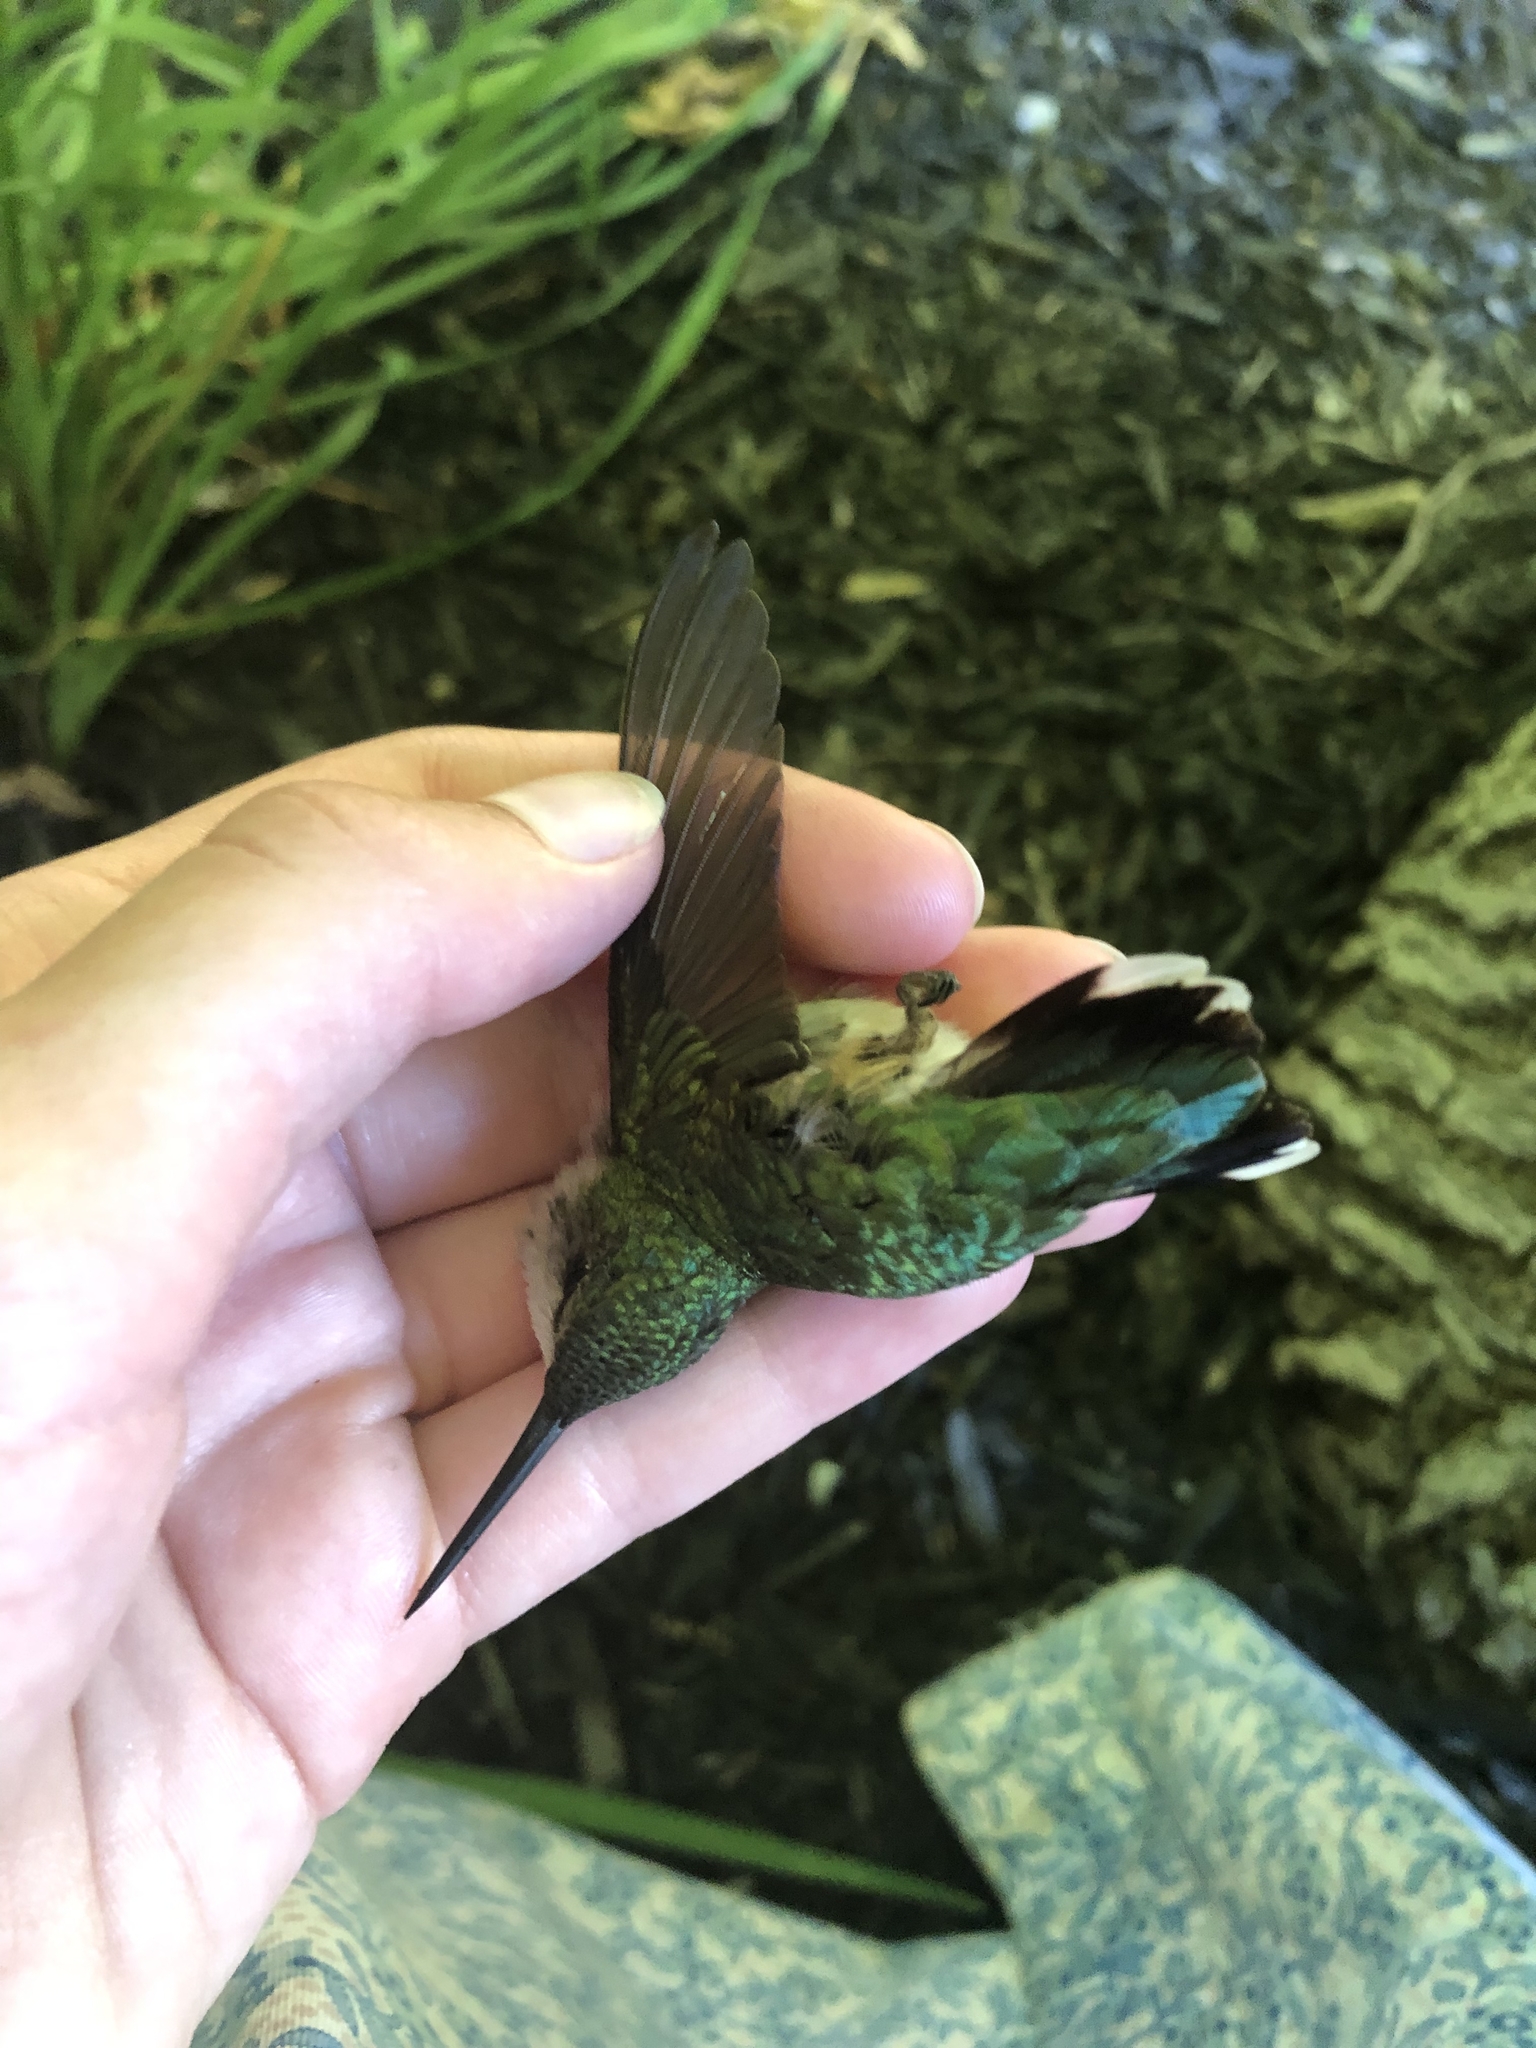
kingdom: Animalia
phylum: Chordata
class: Aves
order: Apodiformes
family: Trochilidae
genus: Archilochus
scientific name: Archilochus colubris
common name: Ruby-throated hummingbird
